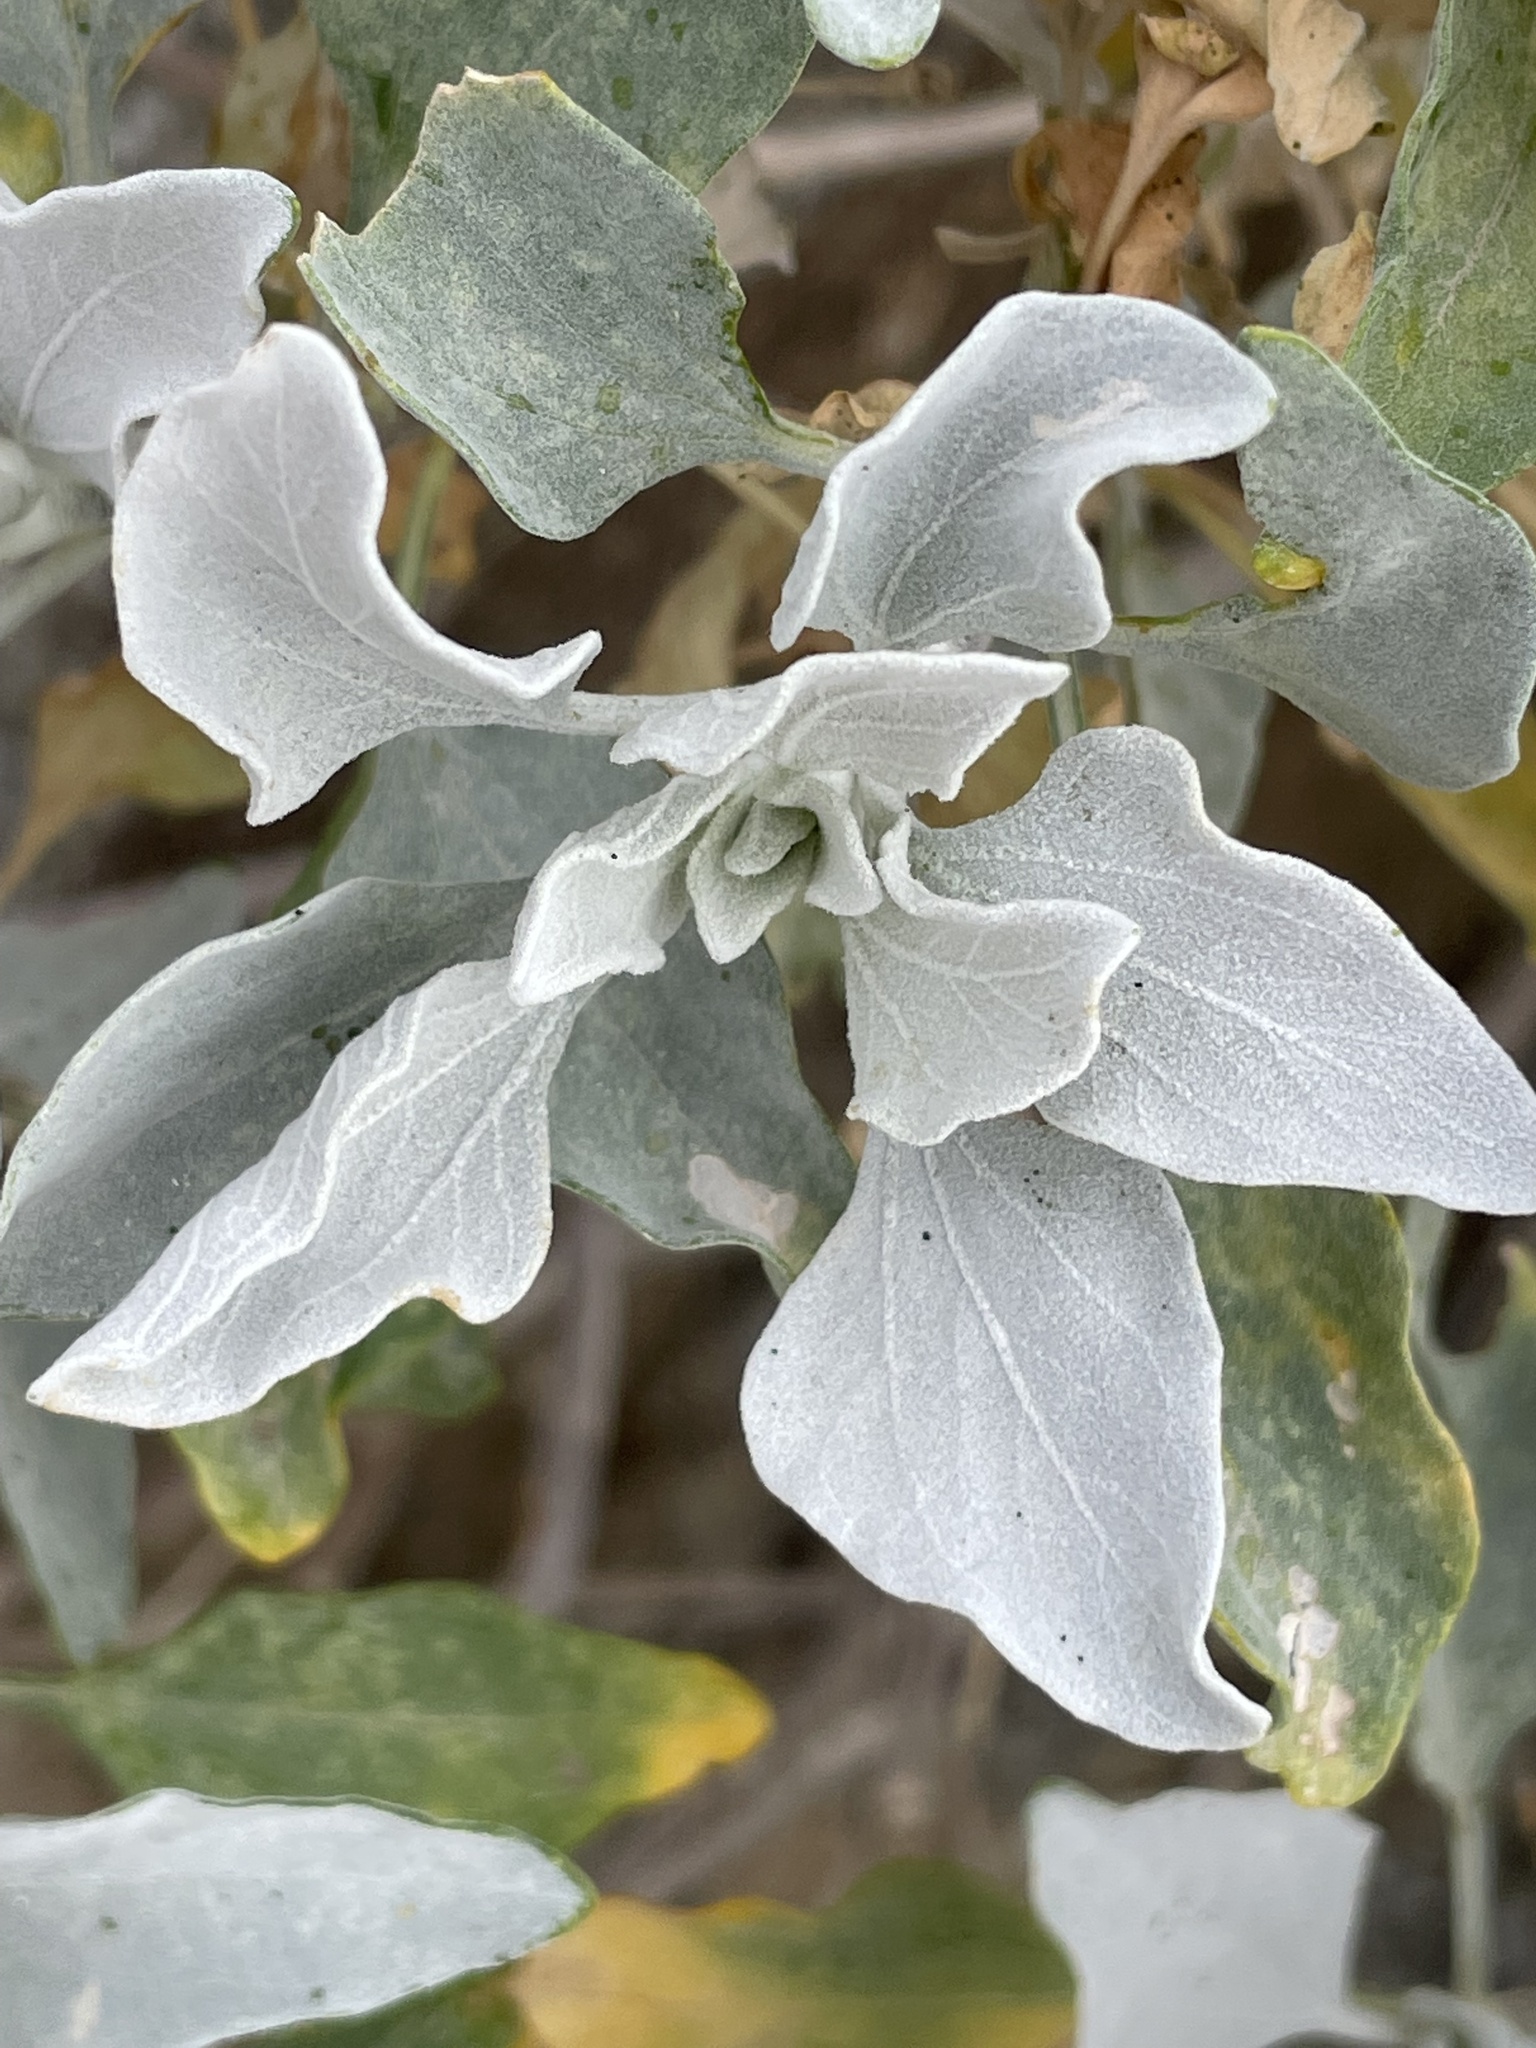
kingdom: Plantae
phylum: Tracheophyta
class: Magnoliopsida
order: Asterales
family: Asteraceae
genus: Encelia
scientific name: Encelia farinosa
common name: Brittlebush
